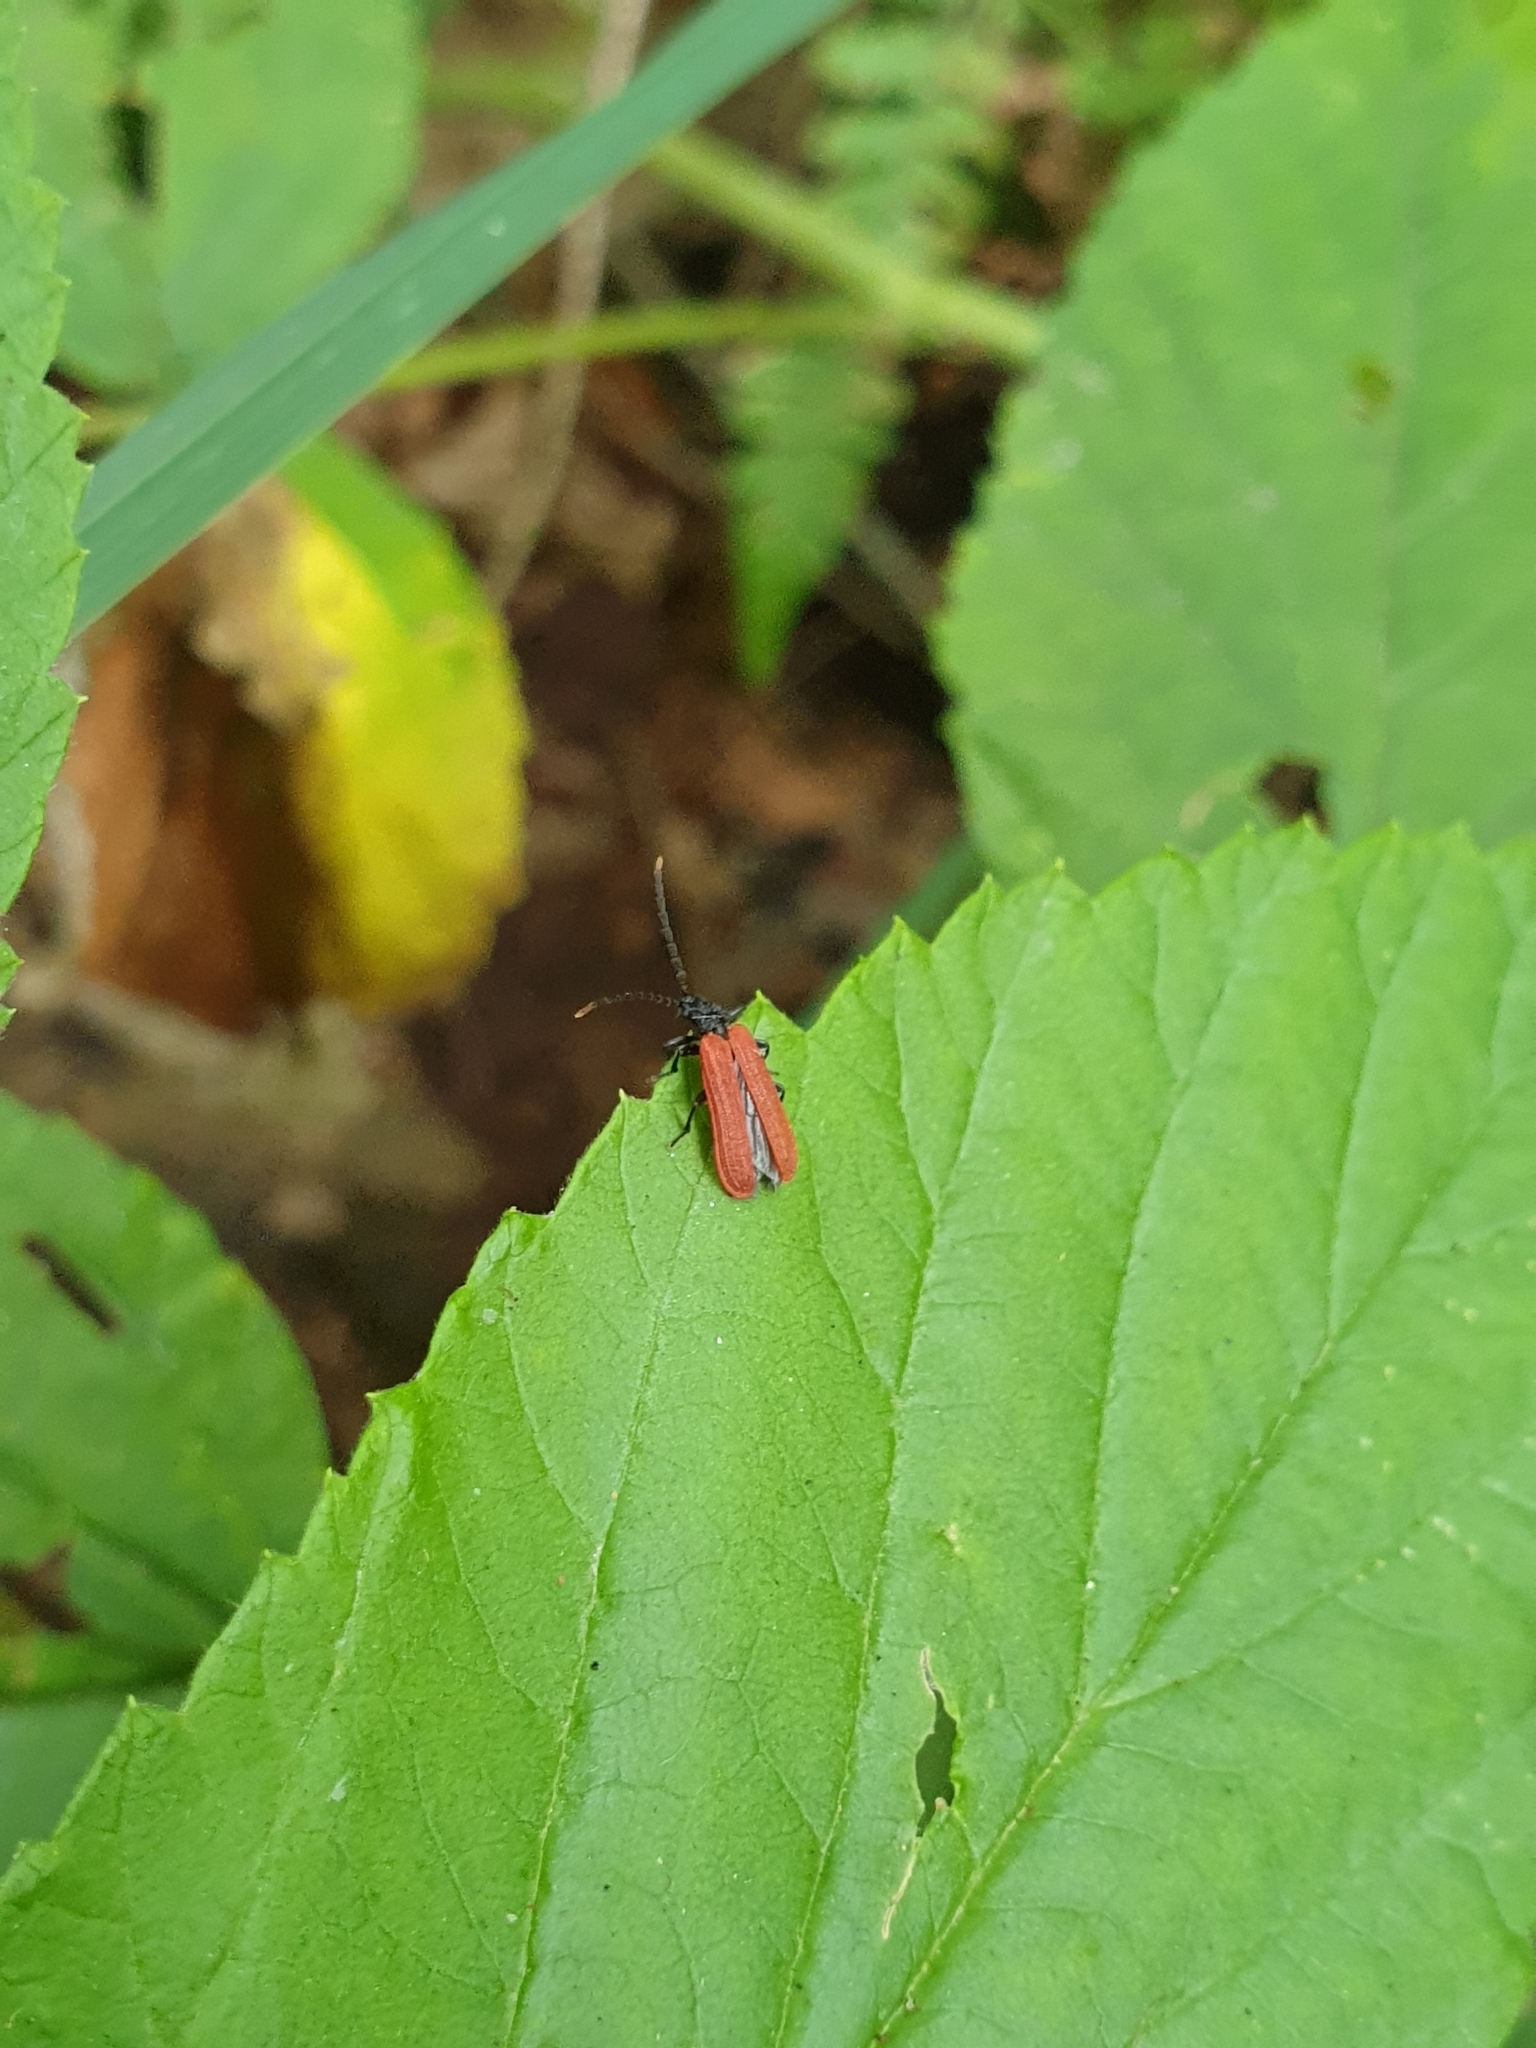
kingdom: Animalia
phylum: Arthropoda
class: Insecta
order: Coleoptera
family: Lycidae
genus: Platycis
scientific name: Platycis minutus
